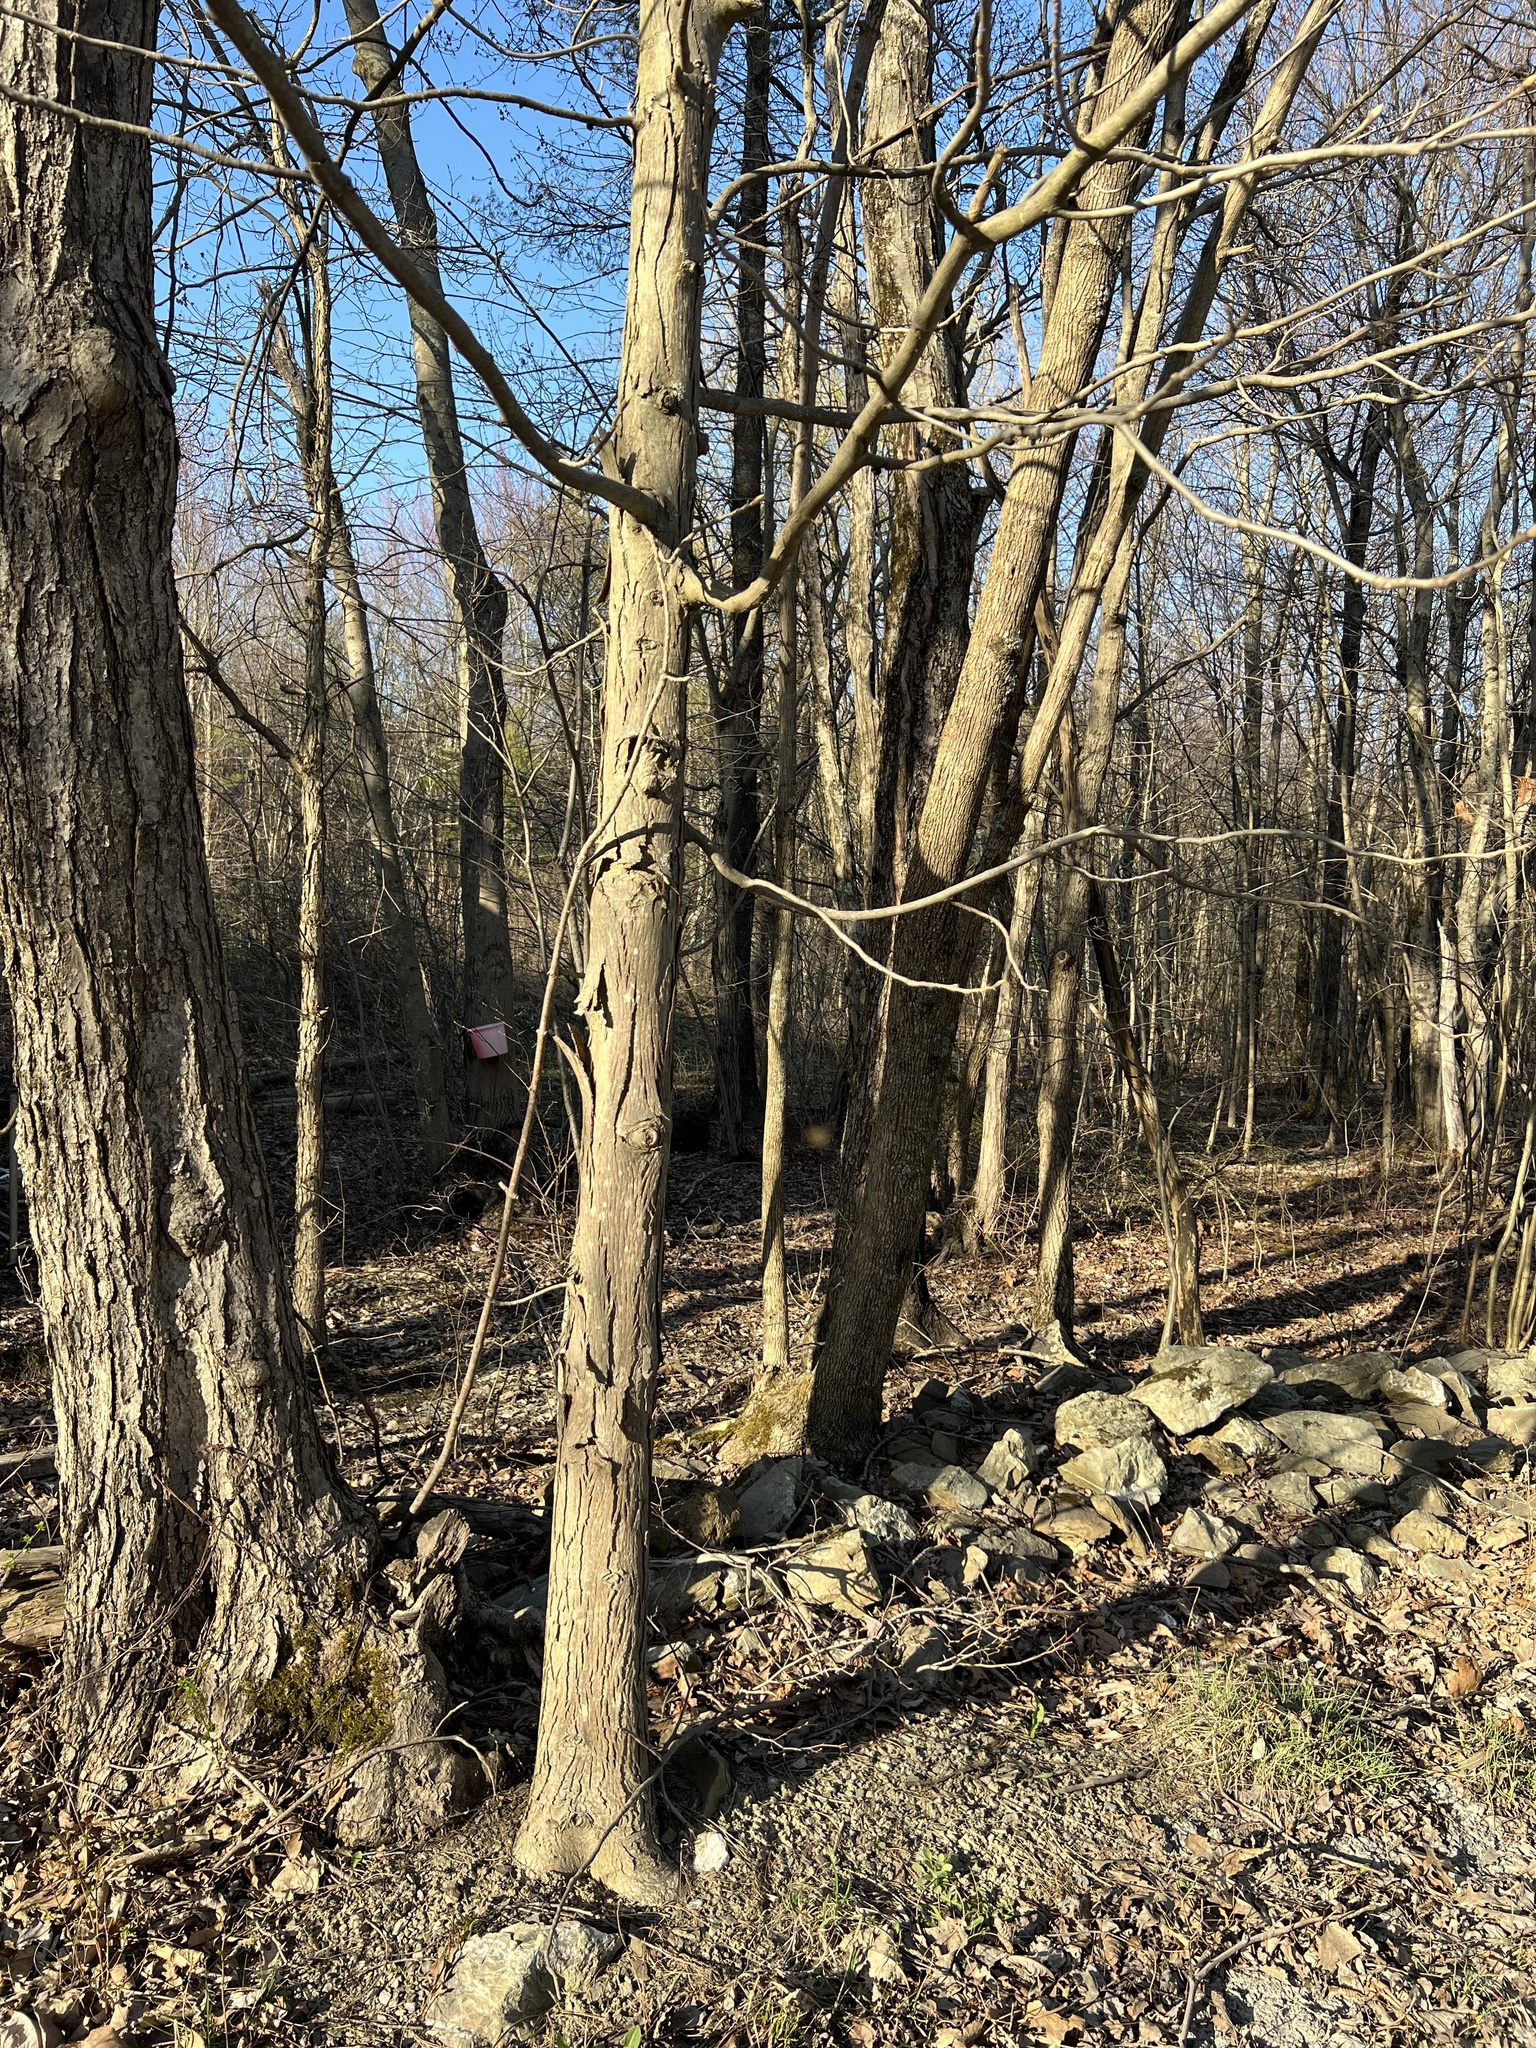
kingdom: Plantae
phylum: Tracheophyta
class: Magnoliopsida
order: Fagales
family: Juglandaceae
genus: Carya
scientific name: Carya ovata
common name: Shagbark hickory
